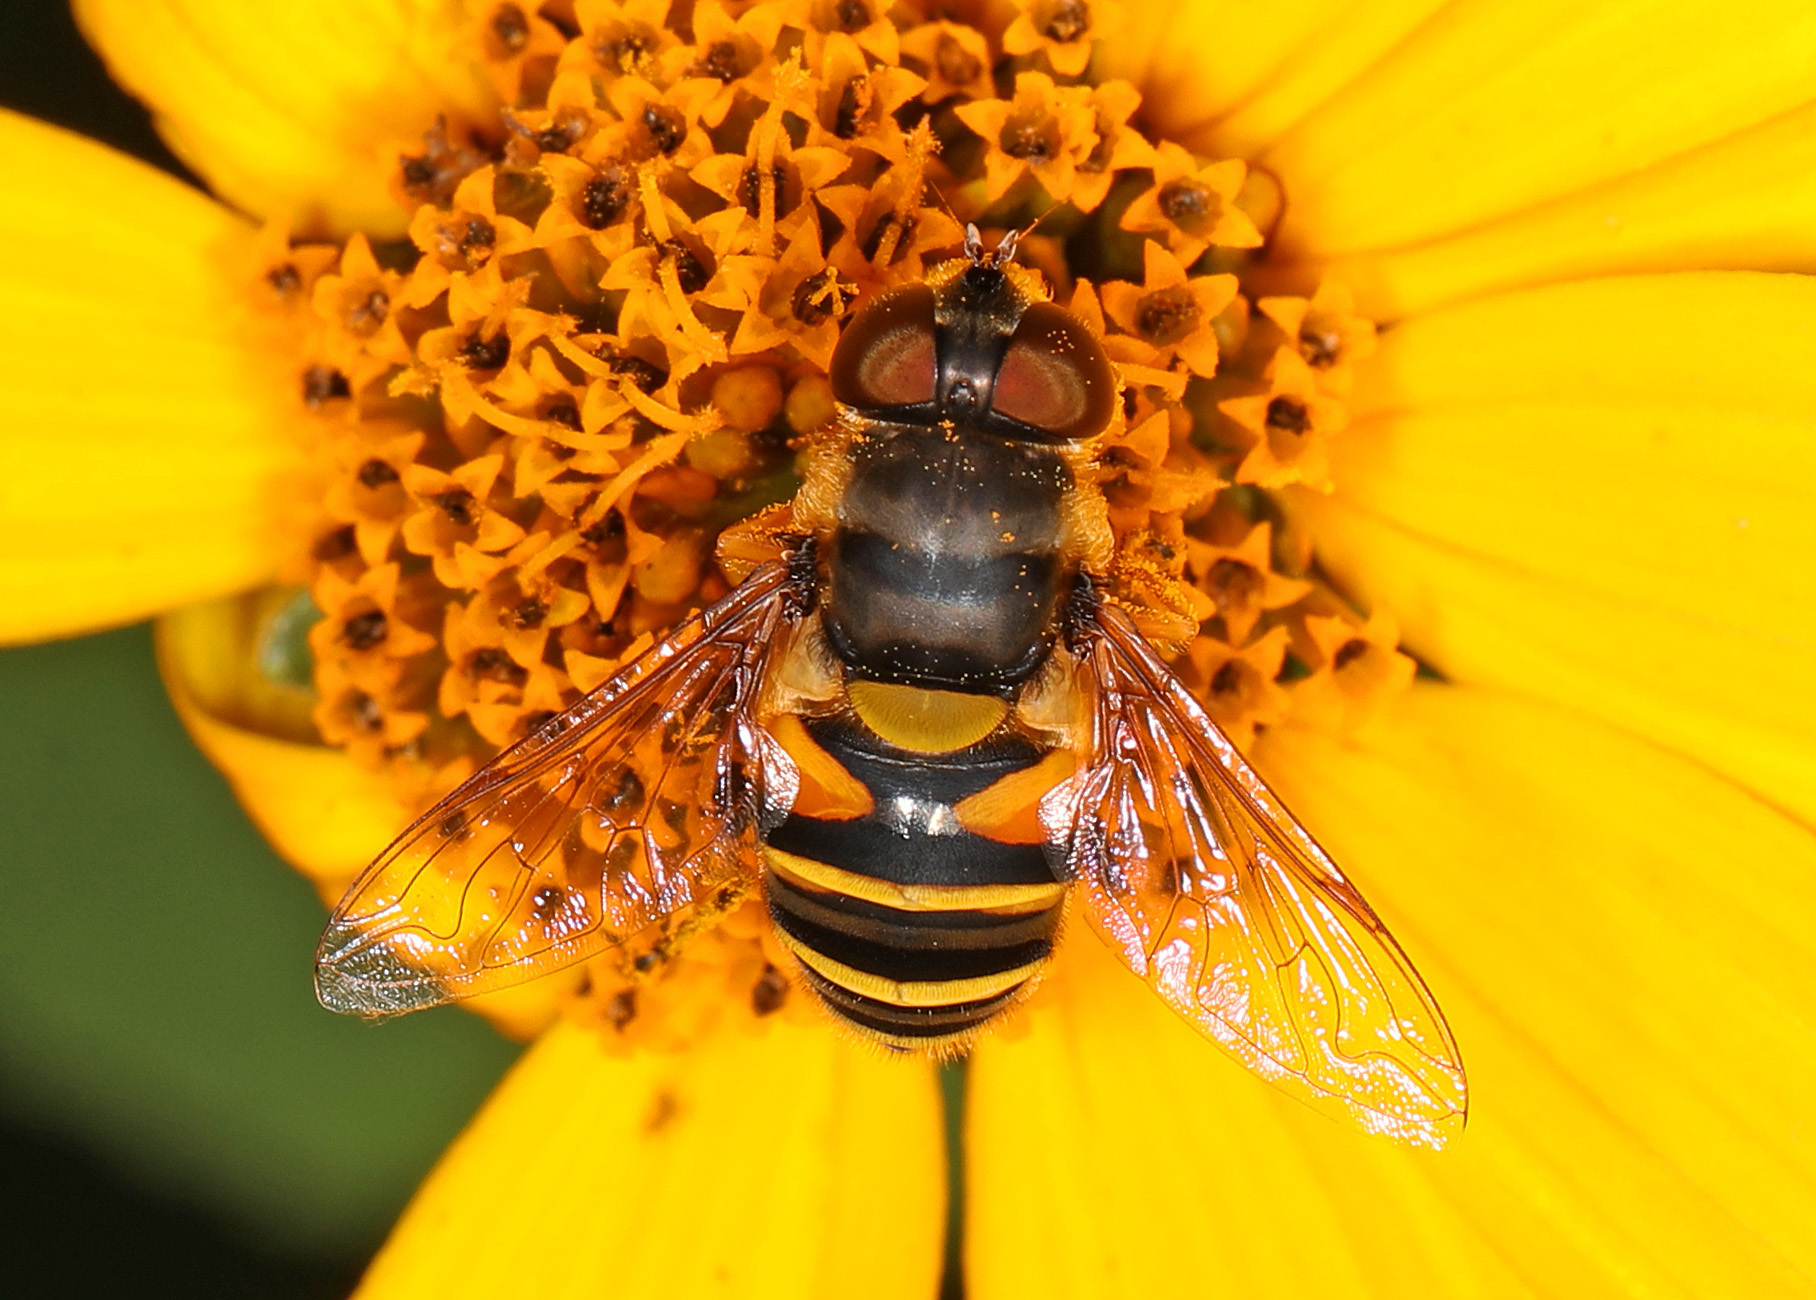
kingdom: Animalia
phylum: Arthropoda
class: Insecta
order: Diptera
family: Syrphidae
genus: Eristalis
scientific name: Eristalis transversa
